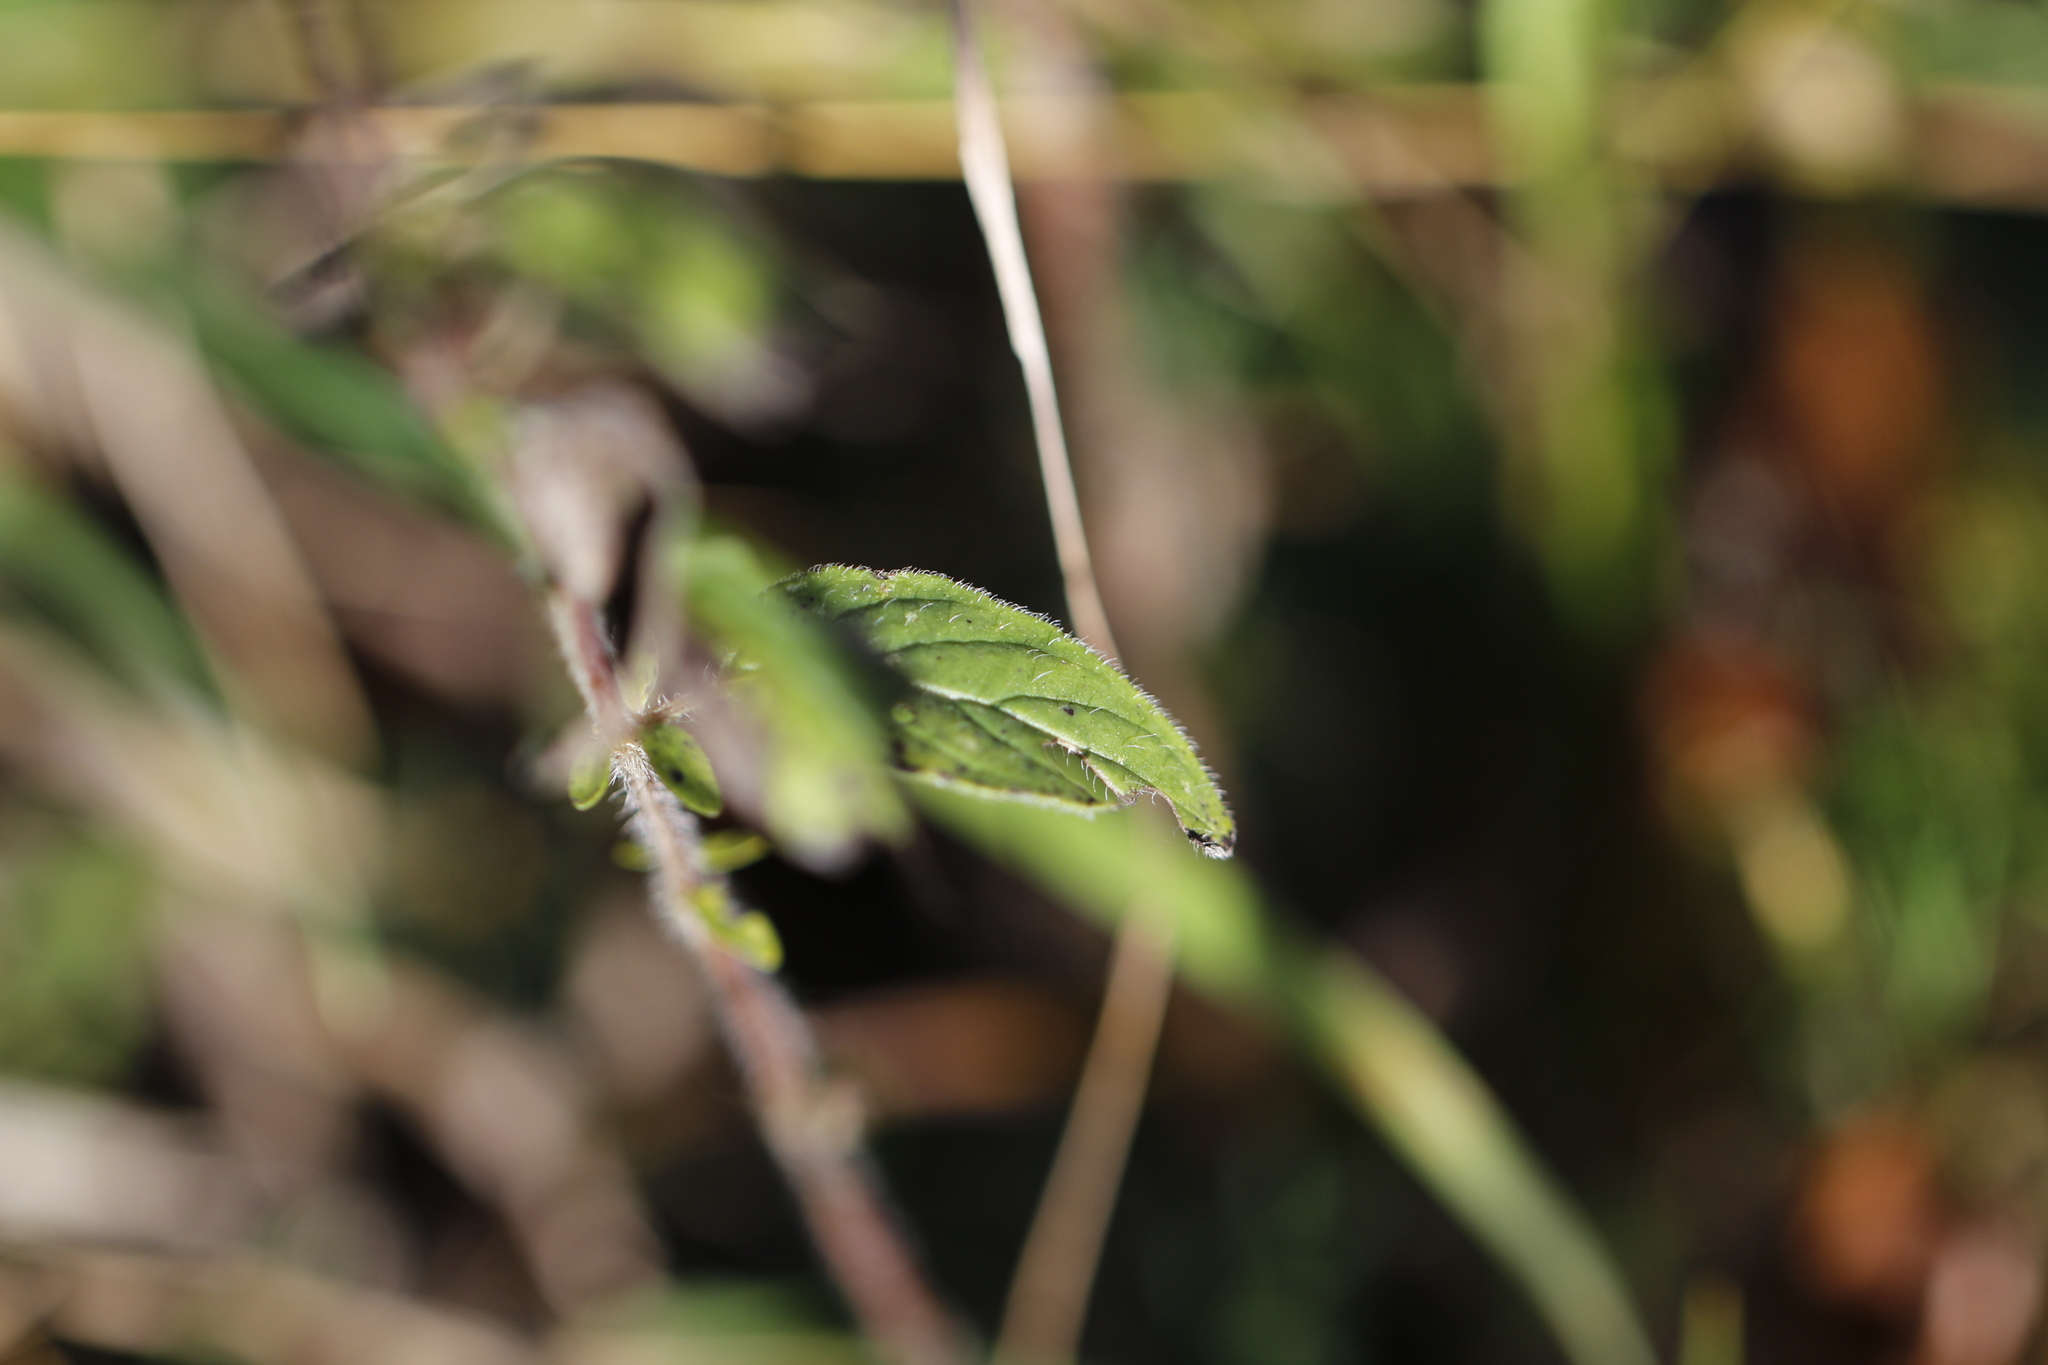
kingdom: Plantae
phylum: Tracheophyta
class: Magnoliopsida
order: Lamiales
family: Lamiaceae
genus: Origanum
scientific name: Origanum vulgare
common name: Wild marjoram
